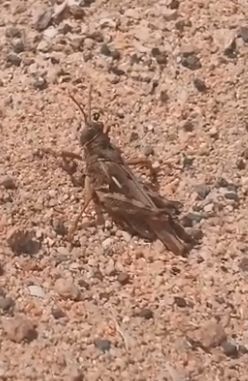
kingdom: Animalia
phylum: Arthropoda
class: Insecta
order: Orthoptera
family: Dericorythidae
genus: Dericorys
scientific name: Dericorys lobata
